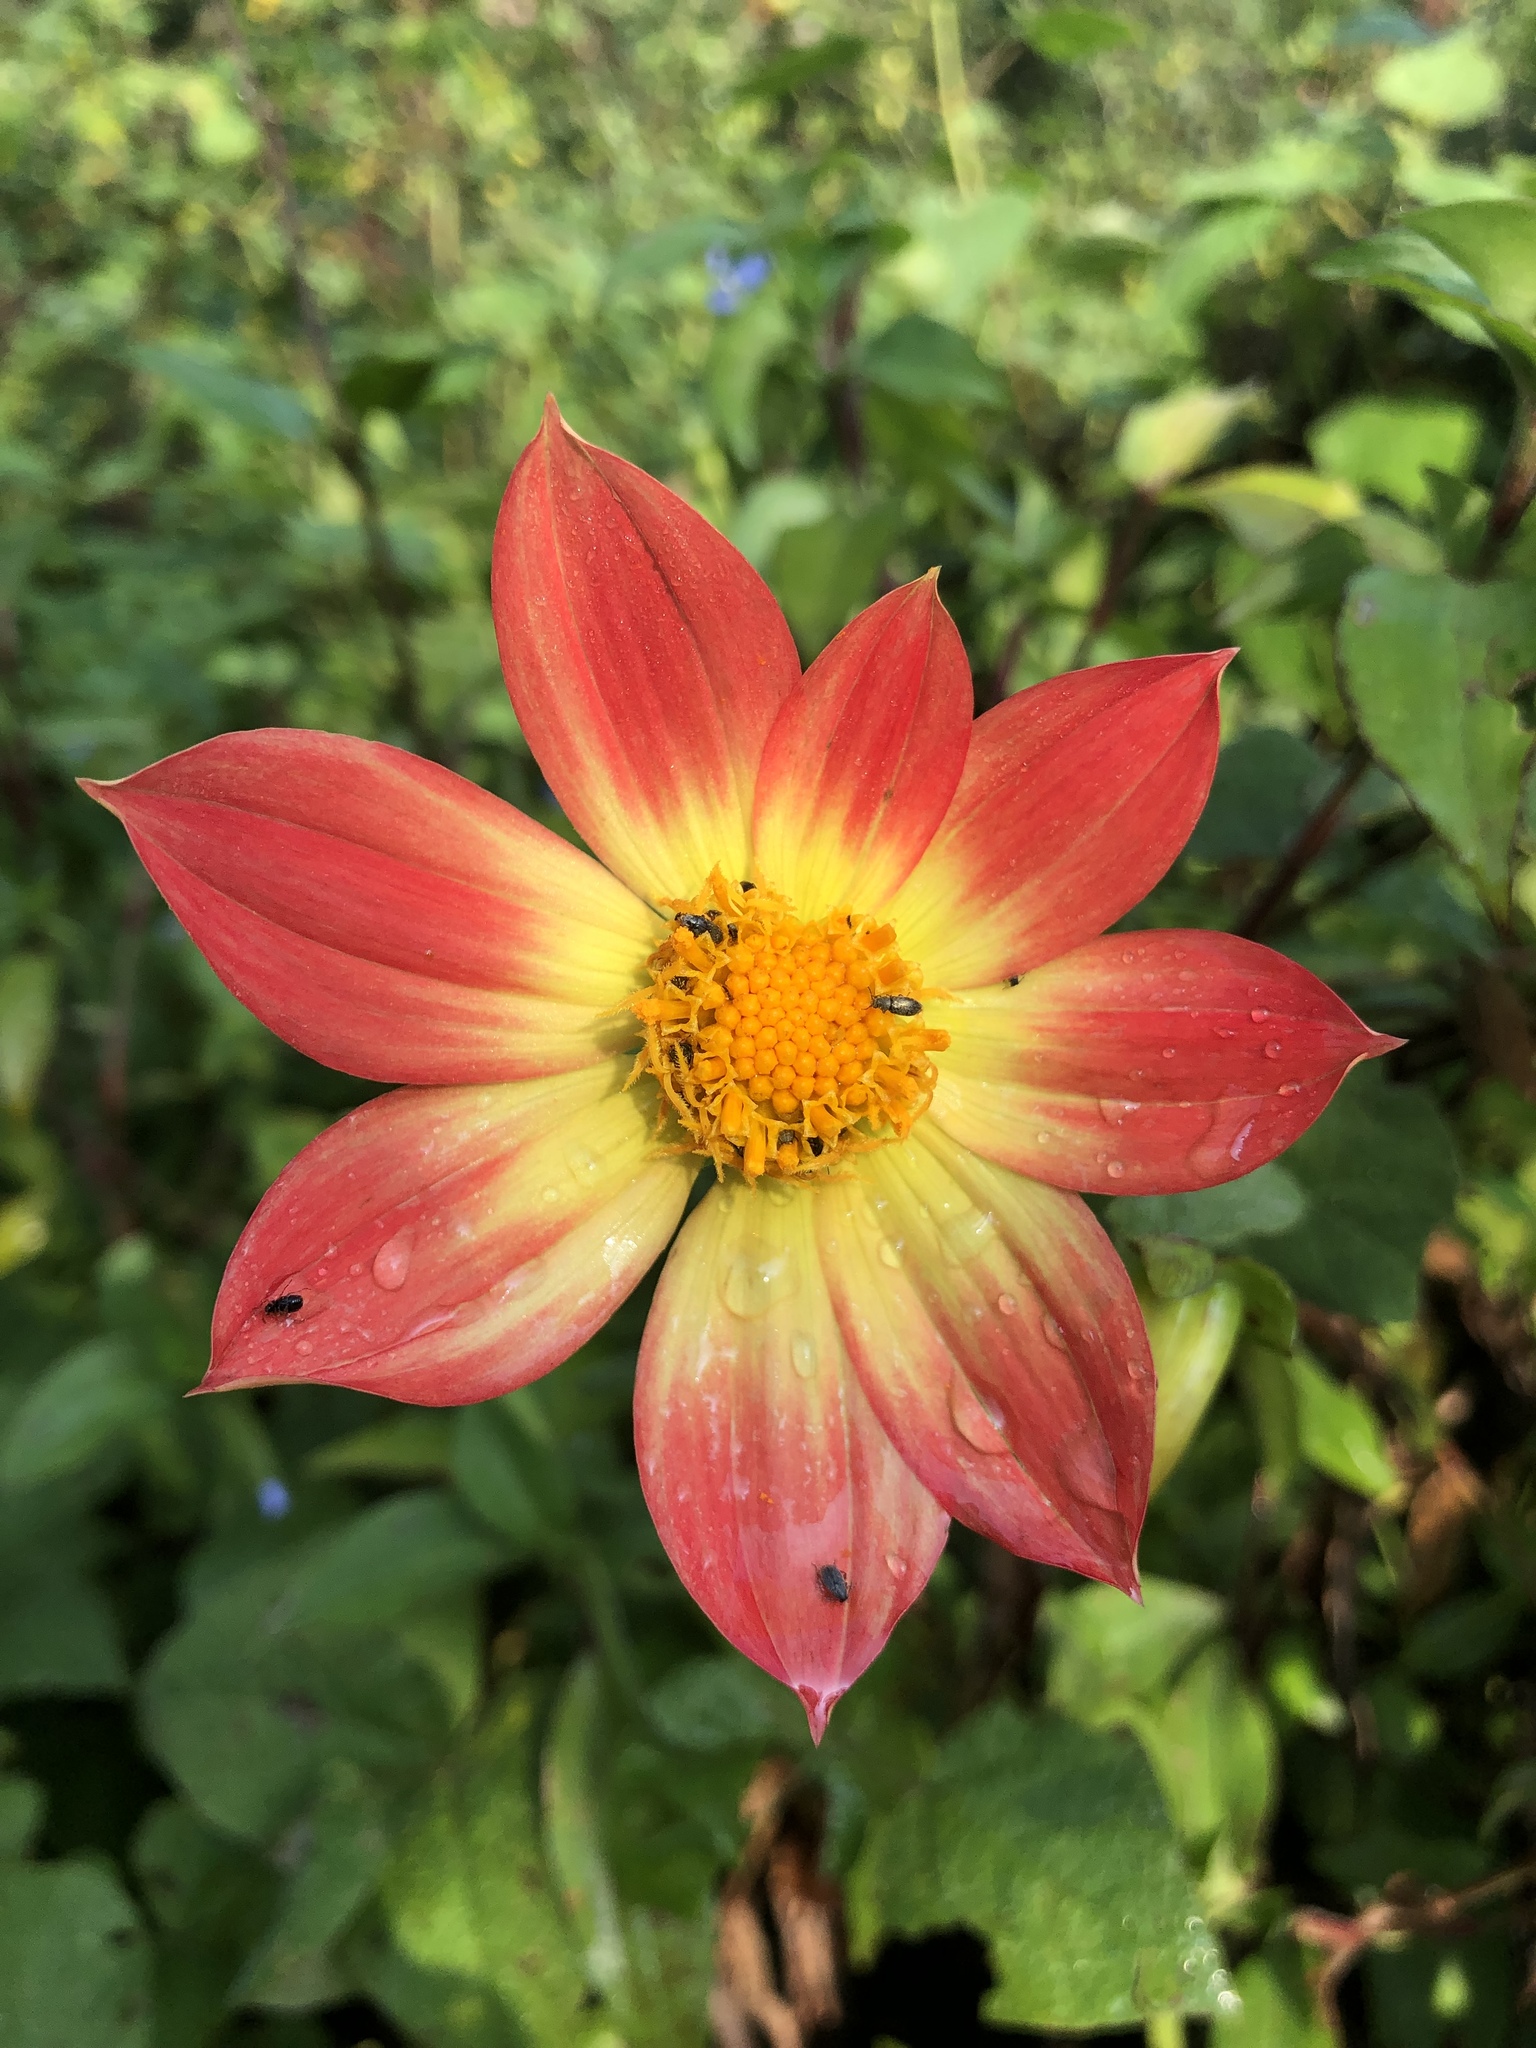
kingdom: Plantae
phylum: Tracheophyta
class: Magnoliopsida
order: Asterales
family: Asteraceae
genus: Dahlia
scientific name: Dahlia coccinea
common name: Red dahlia
